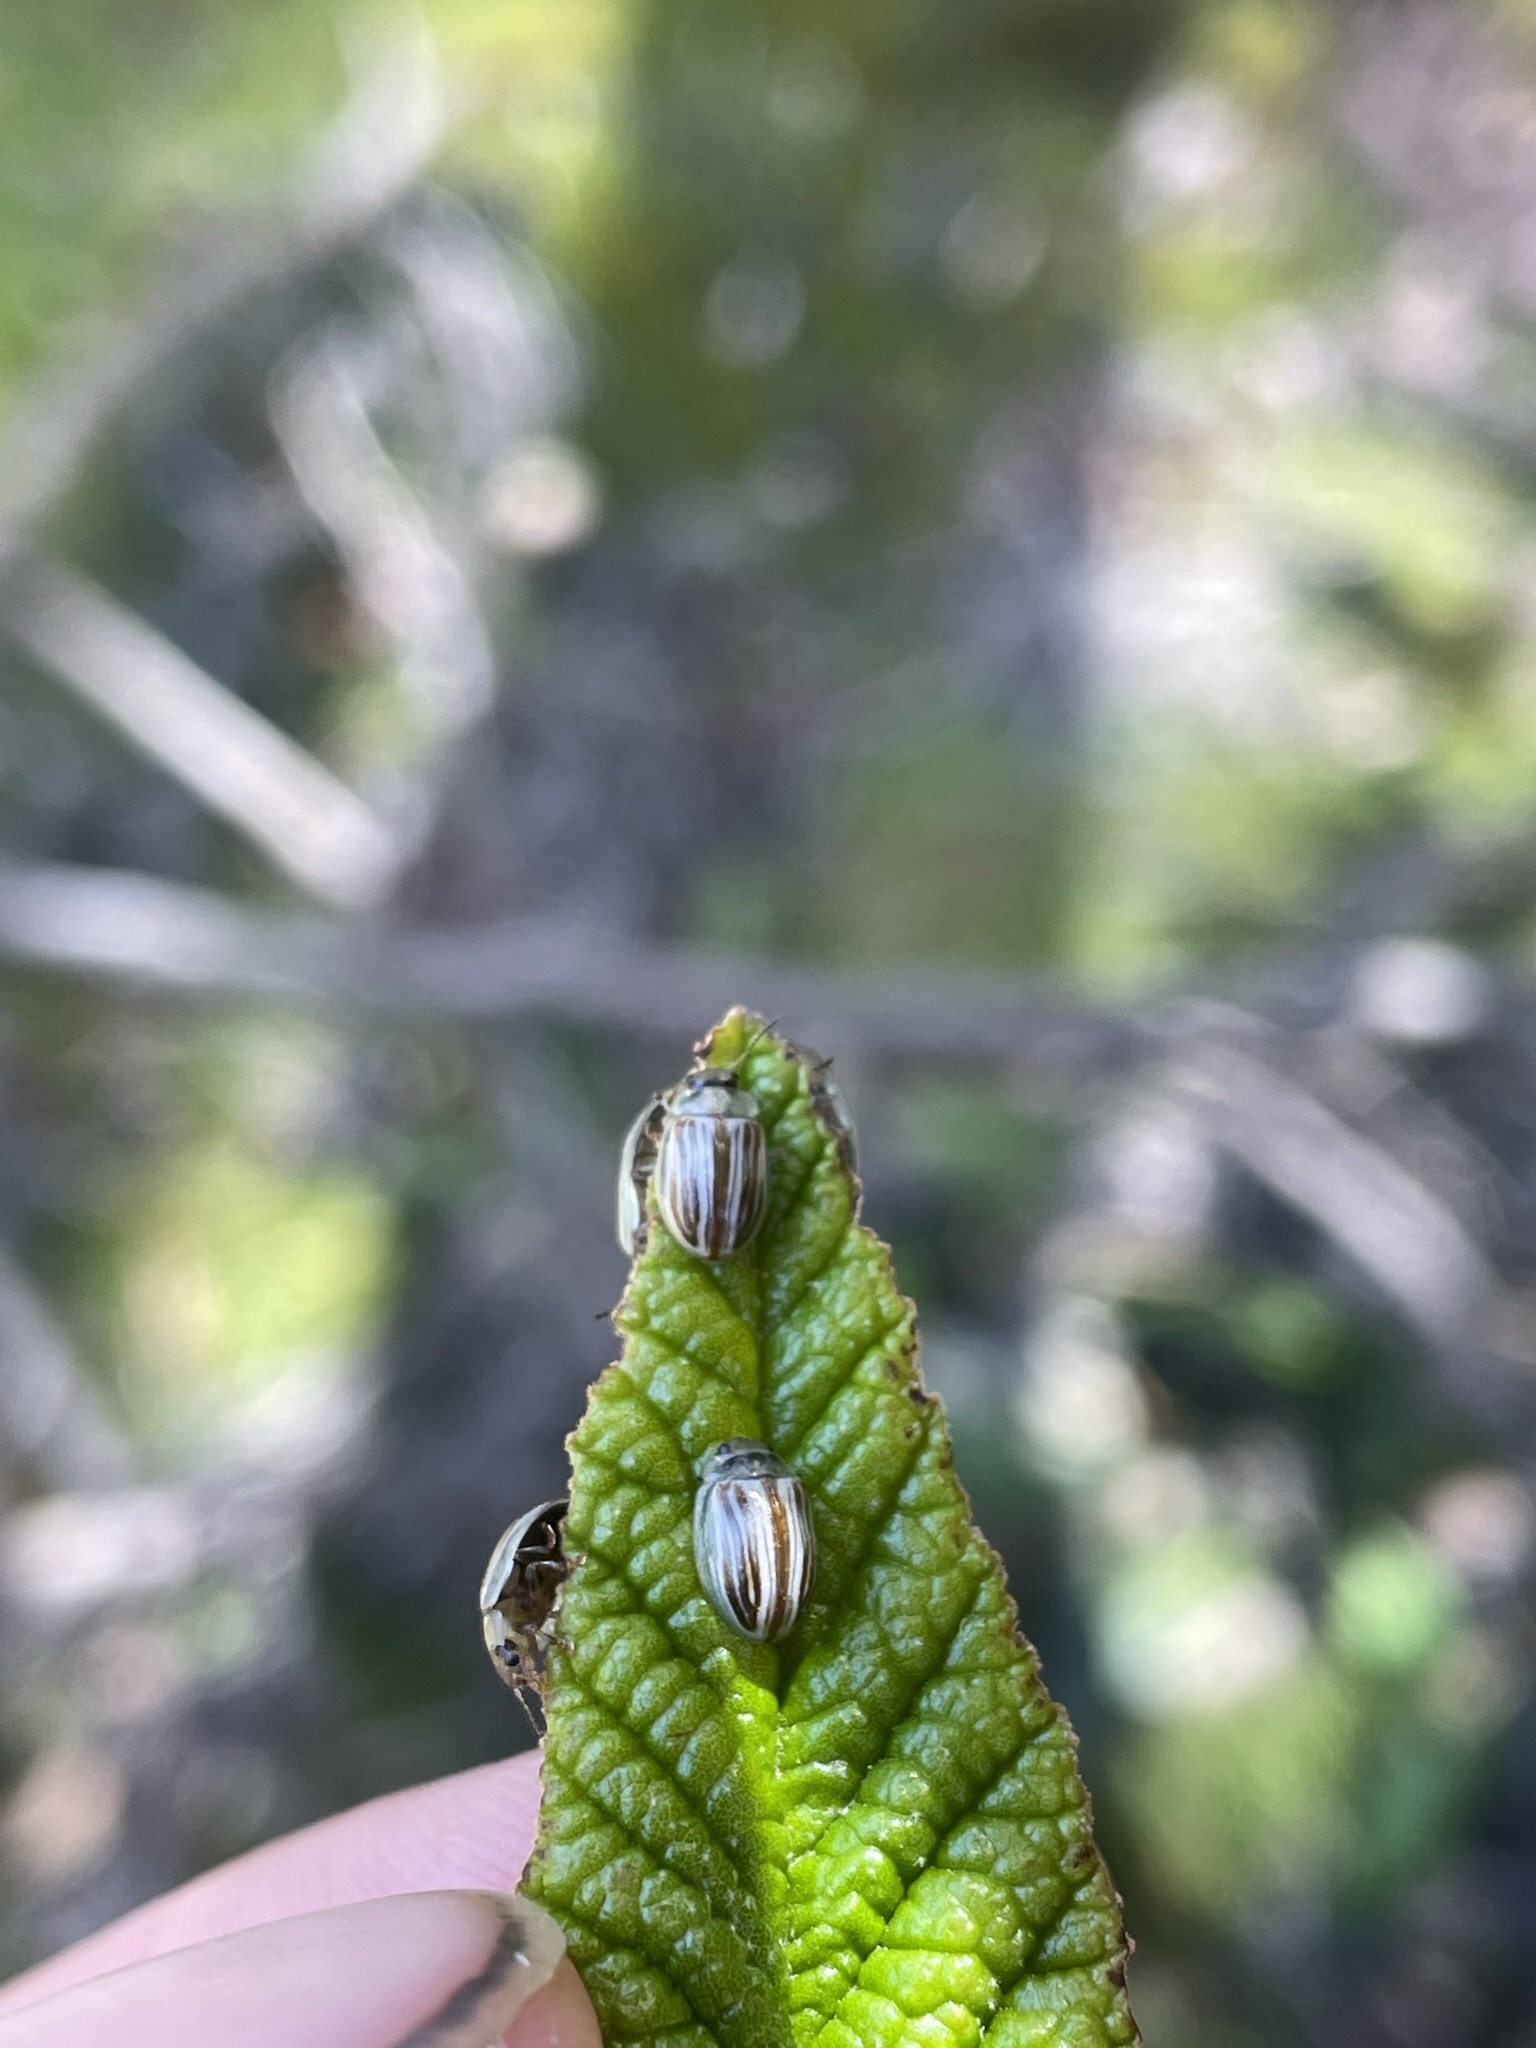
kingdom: Animalia
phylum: Arthropoda
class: Insecta
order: Coleoptera
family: Chrysomelidae
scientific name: Chrysomelidae
